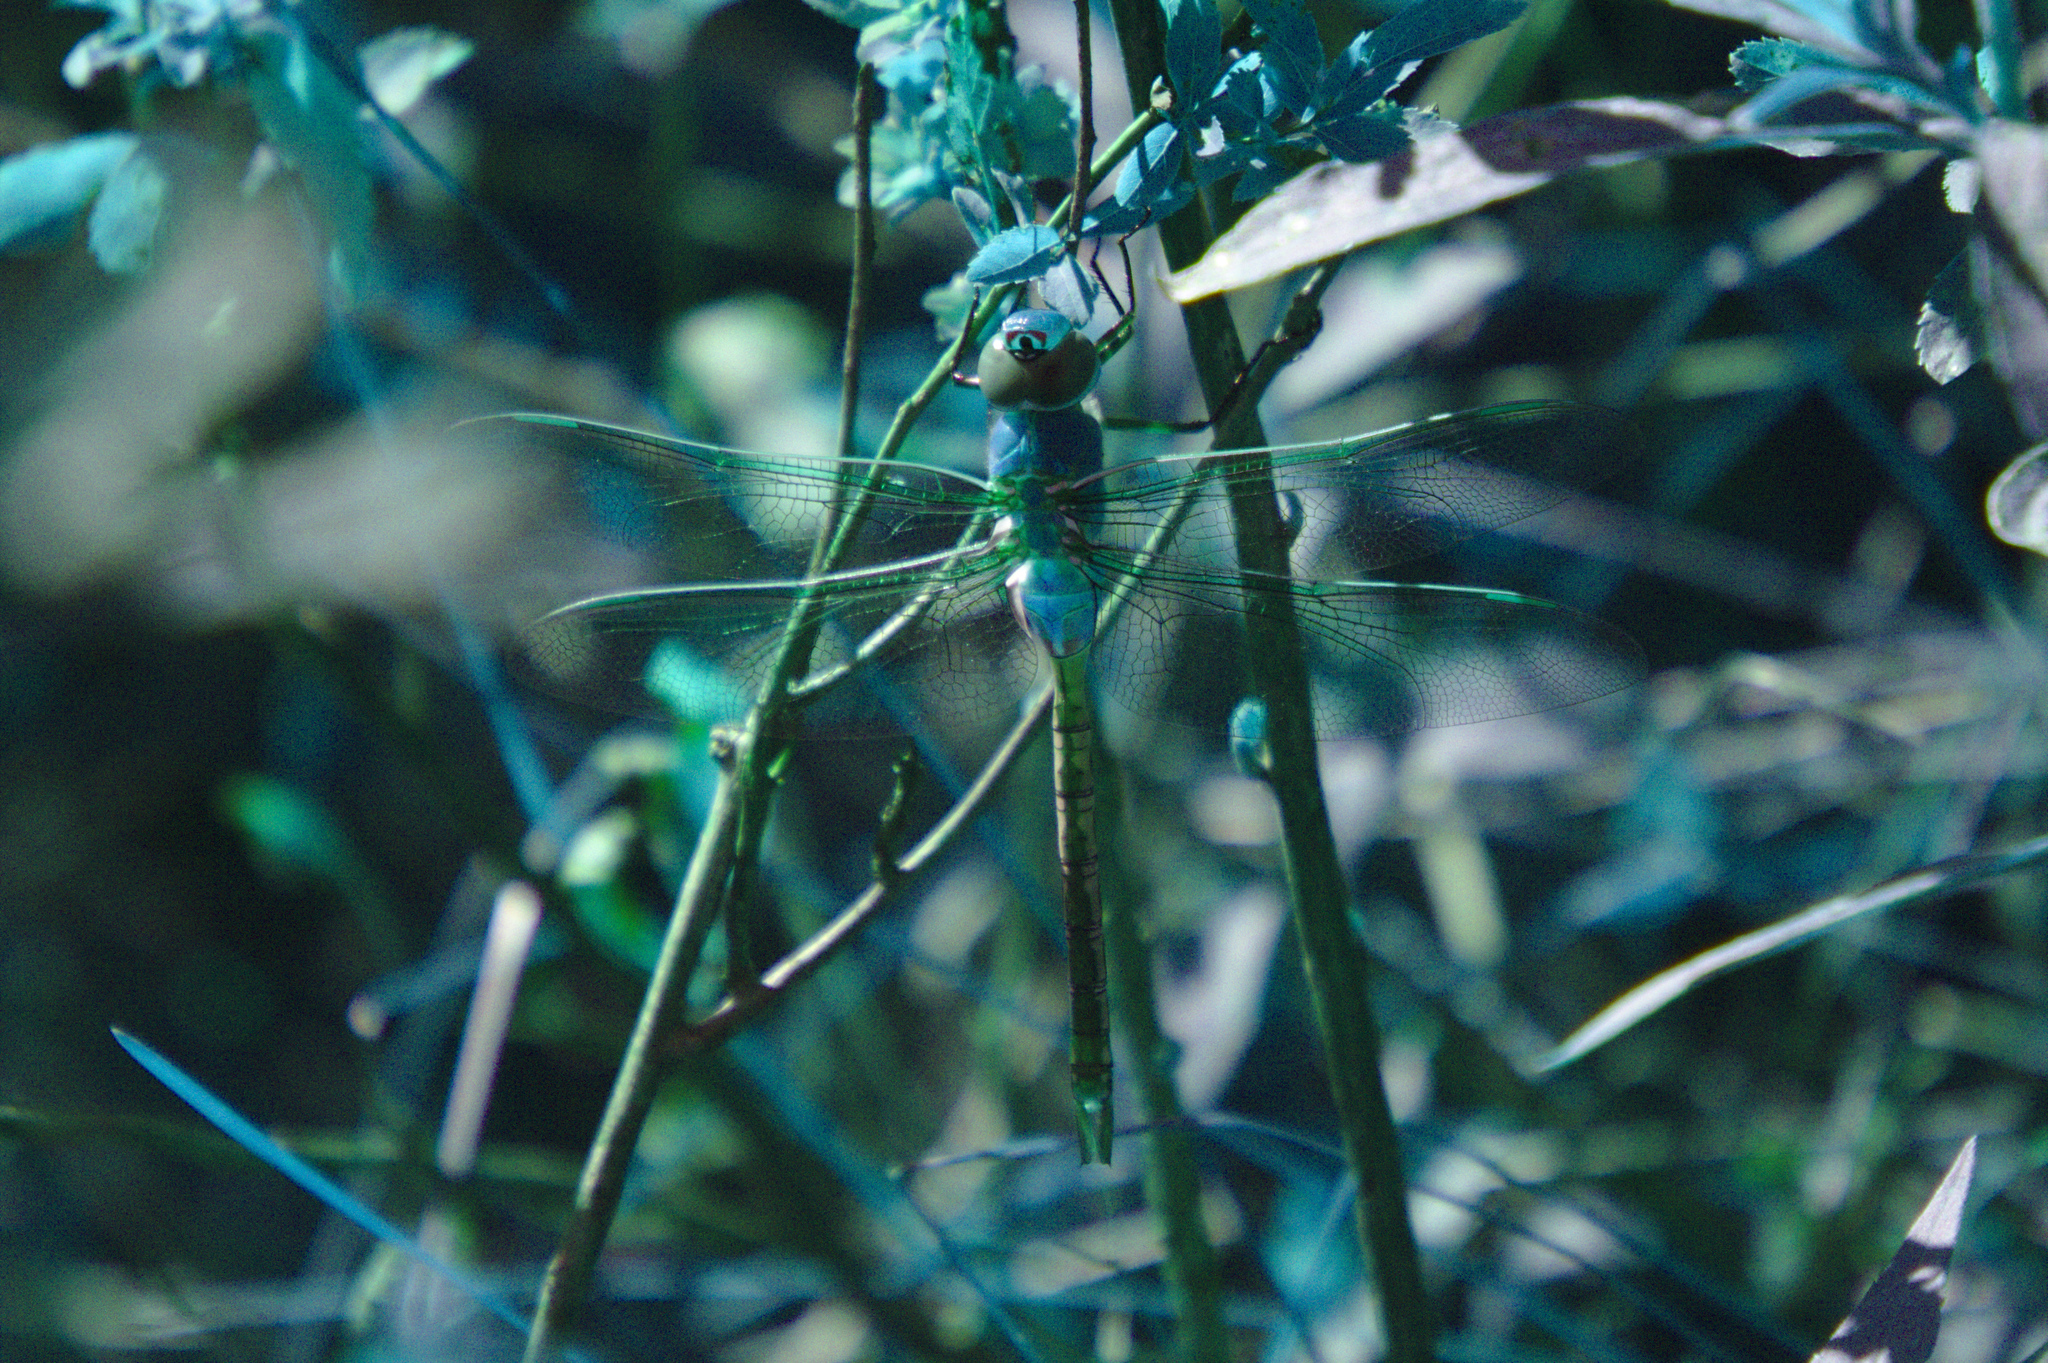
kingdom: Animalia
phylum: Arthropoda
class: Insecta
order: Odonata
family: Aeshnidae
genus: Anax
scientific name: Anax junius
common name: Common green darner
